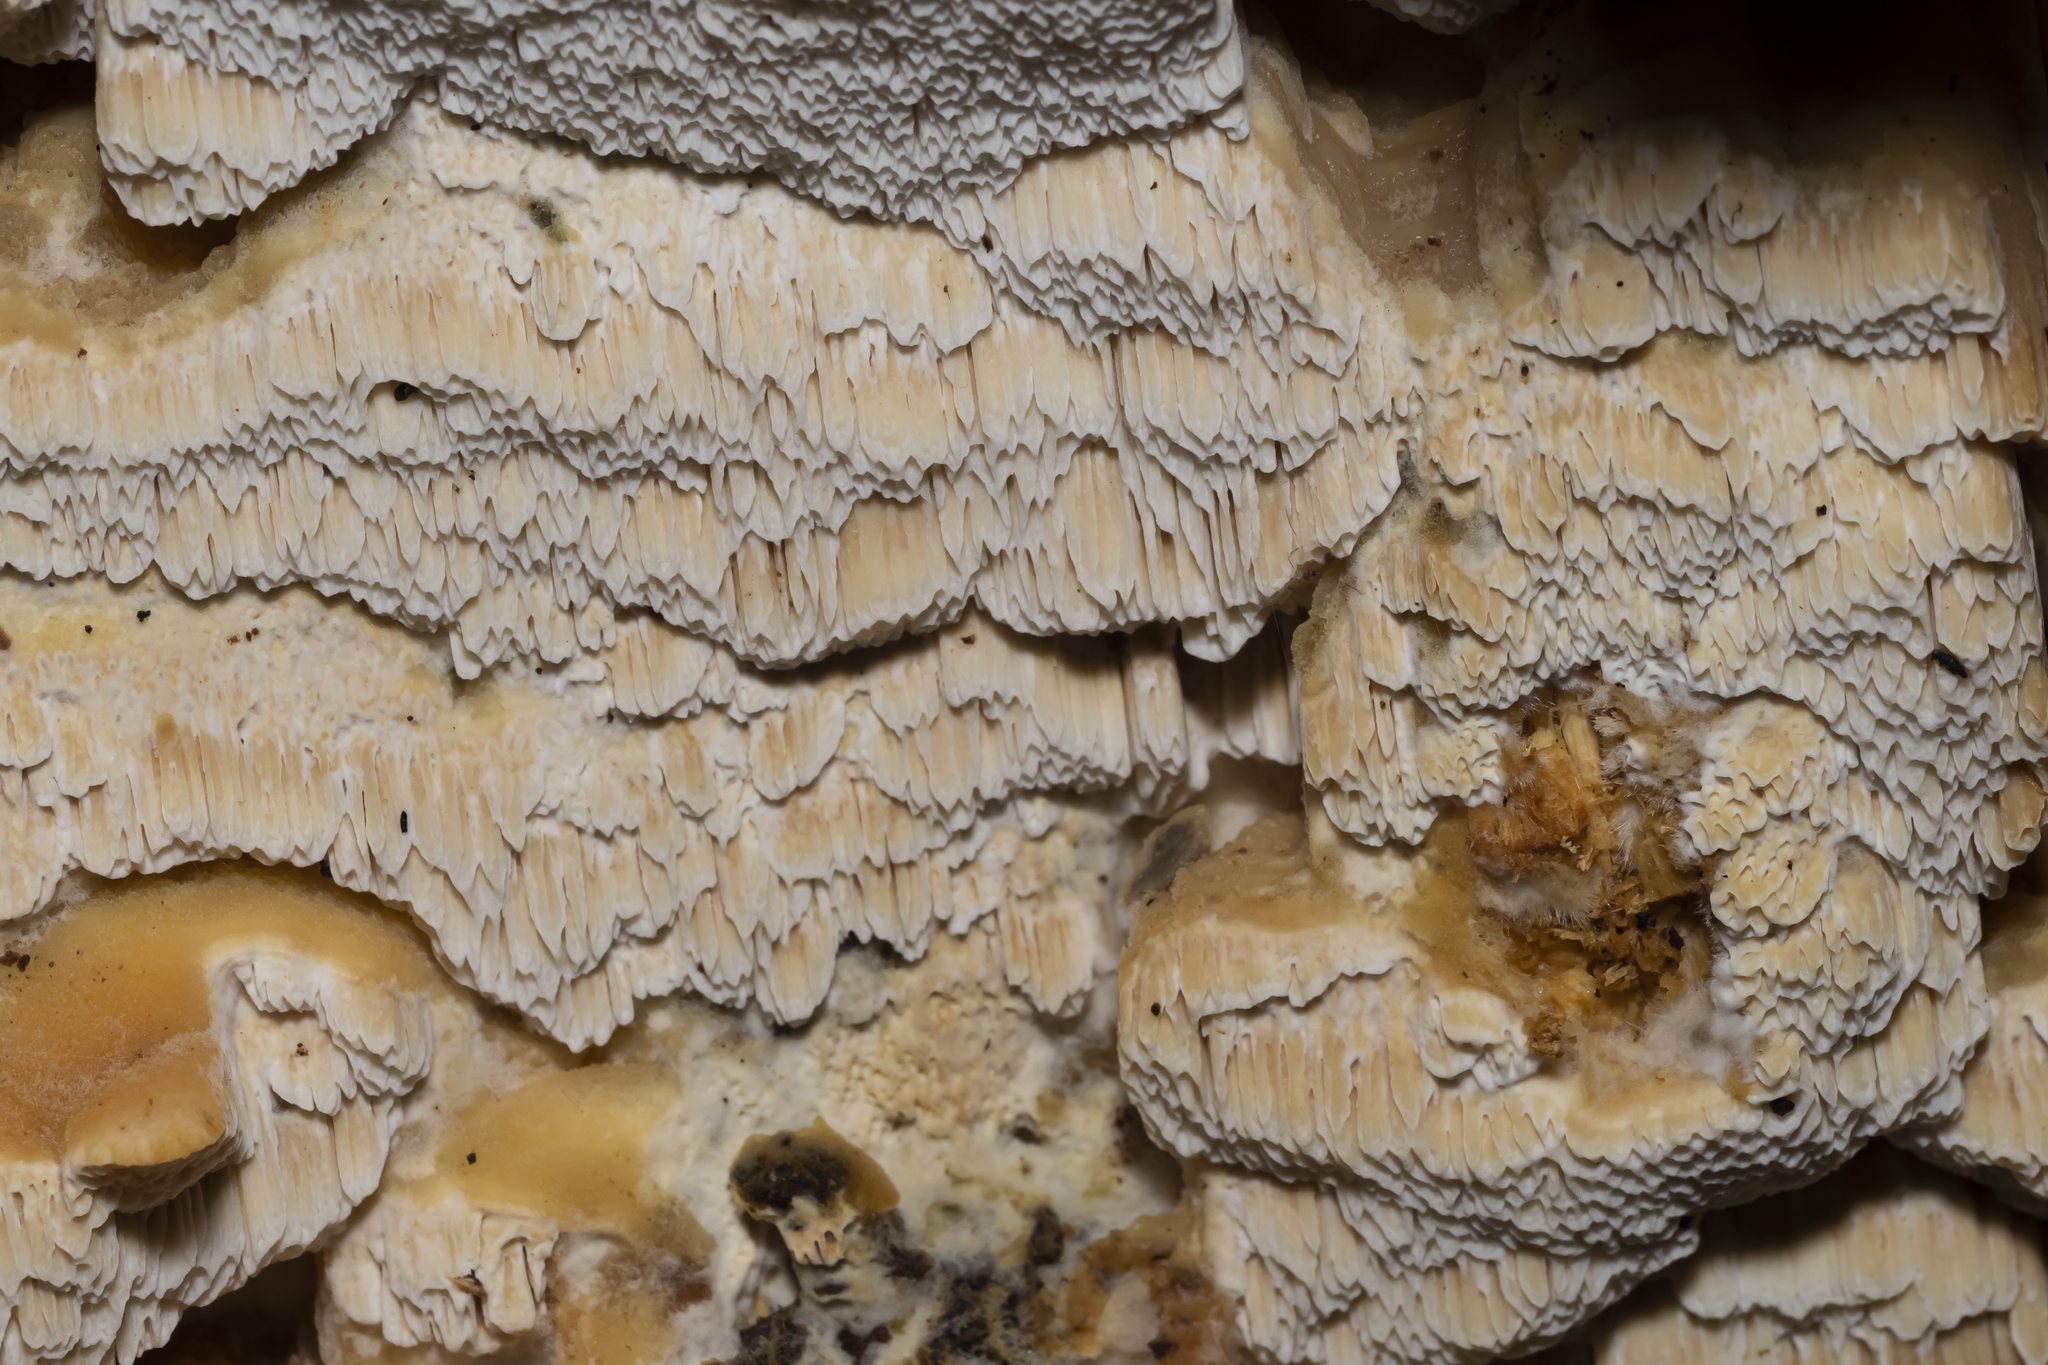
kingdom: Fungi
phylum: Basidiomycota
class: Agaricomycetes
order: Polyporales
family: Cerrenaceae
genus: Cerrena
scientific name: Cerrena zonata
